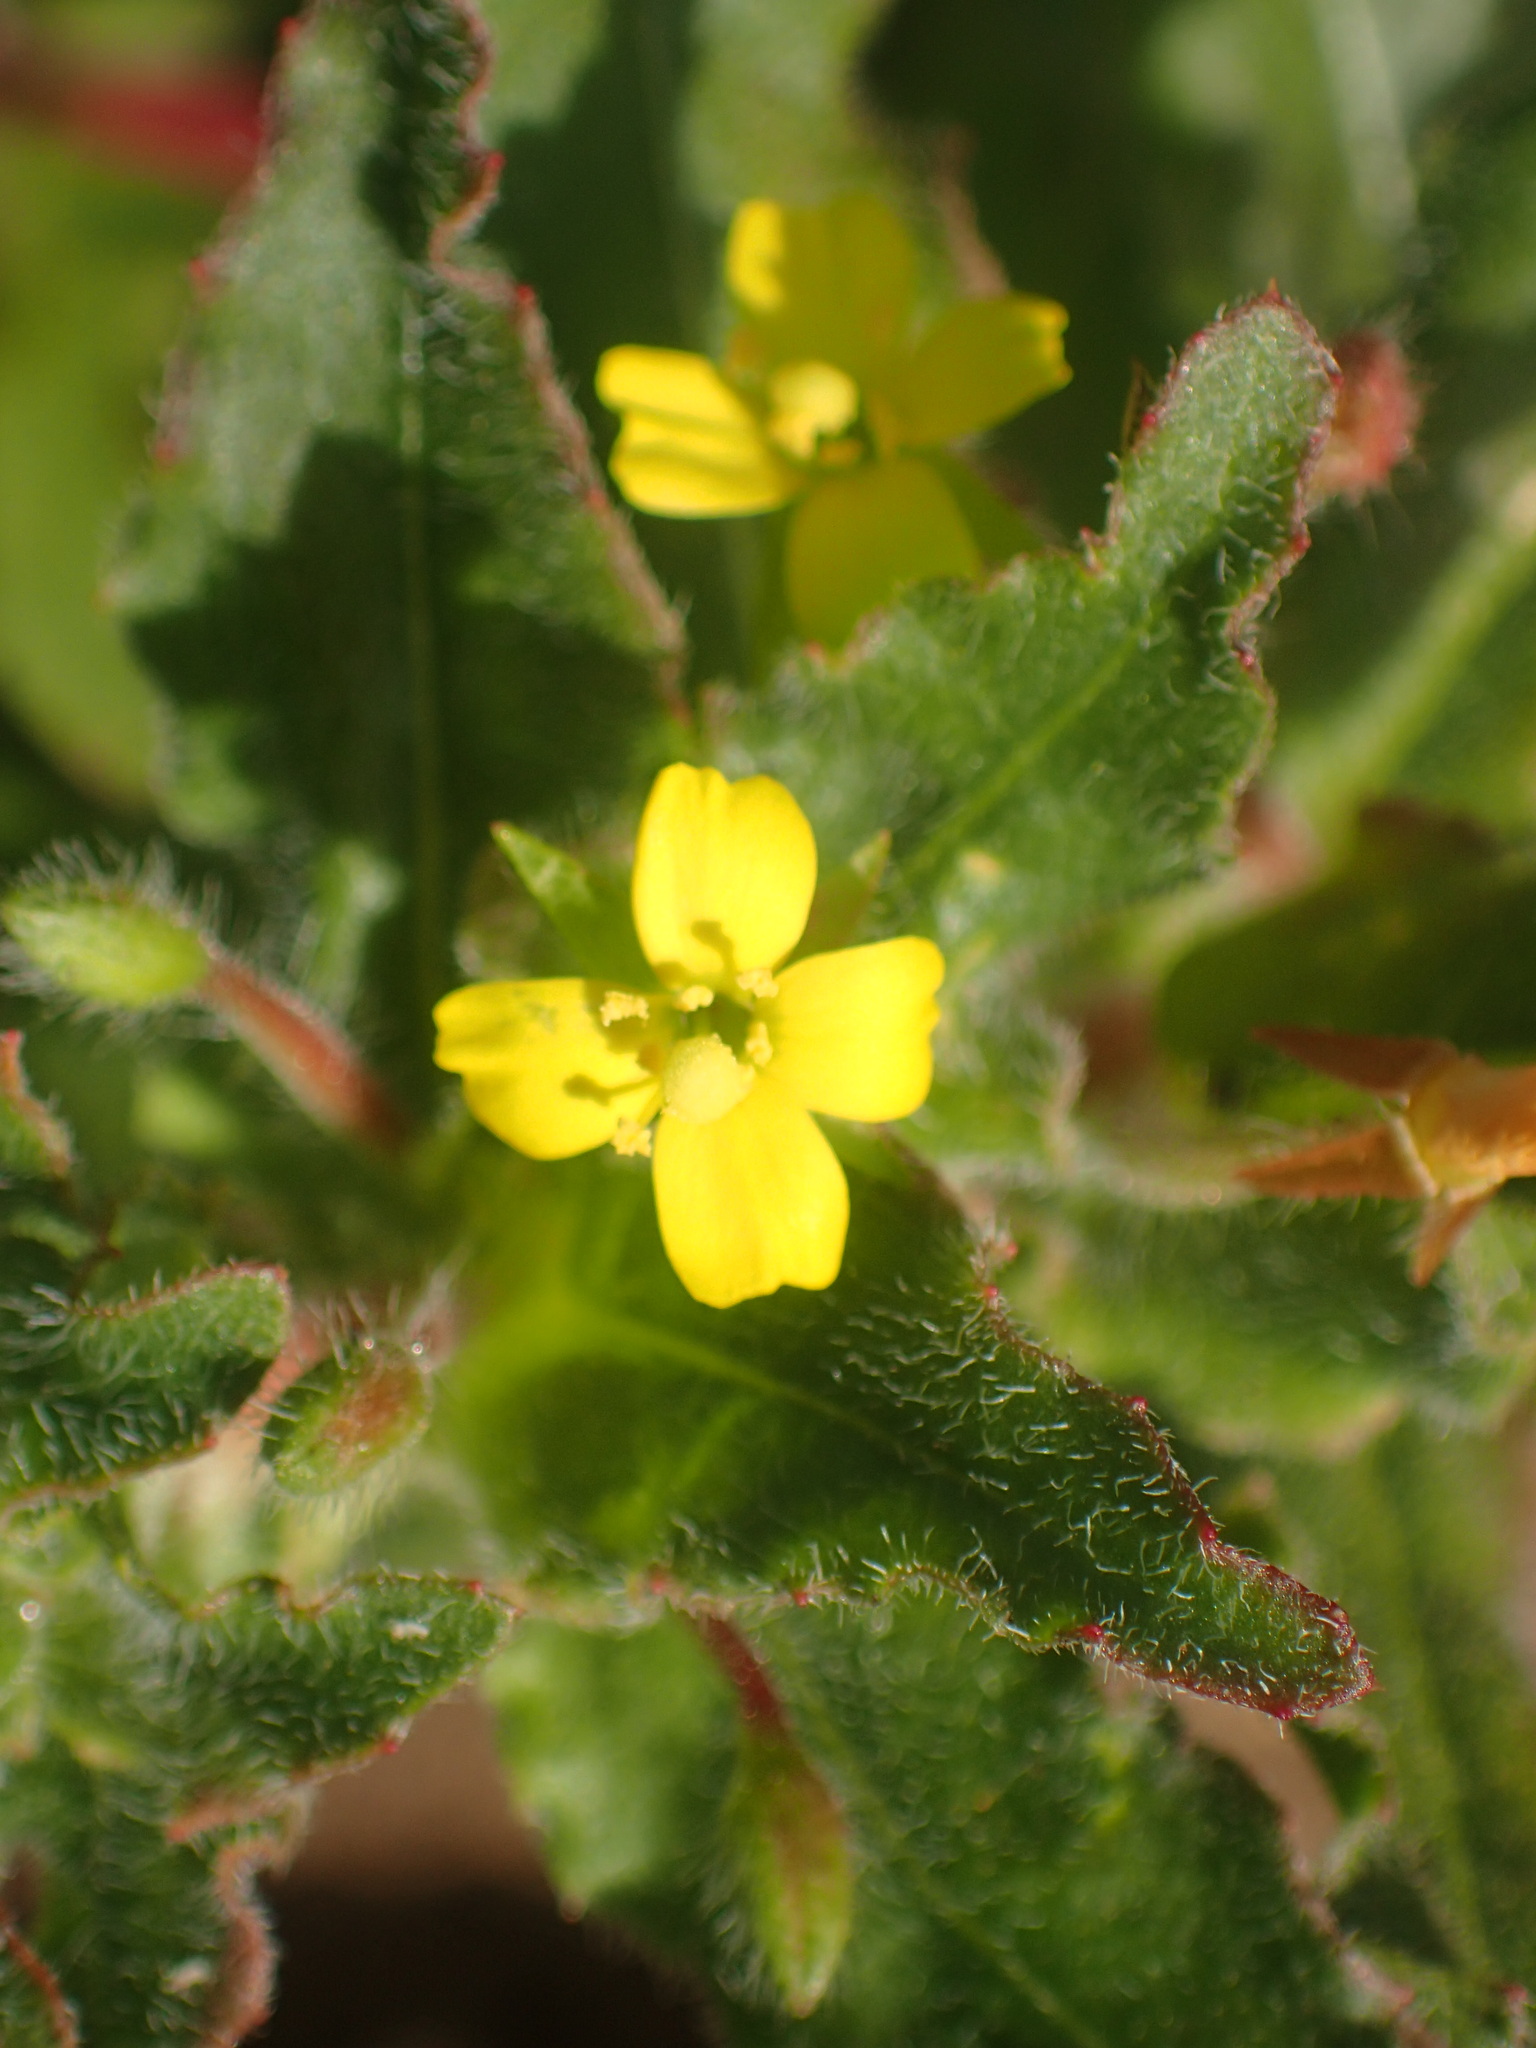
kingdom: Plantae
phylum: Tracheophyta
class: Magnoliopsida
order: Myrtales
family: Onagraceae
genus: Camissoniopsis
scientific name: Camissoniopsis micrantha
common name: Miniature suncup
